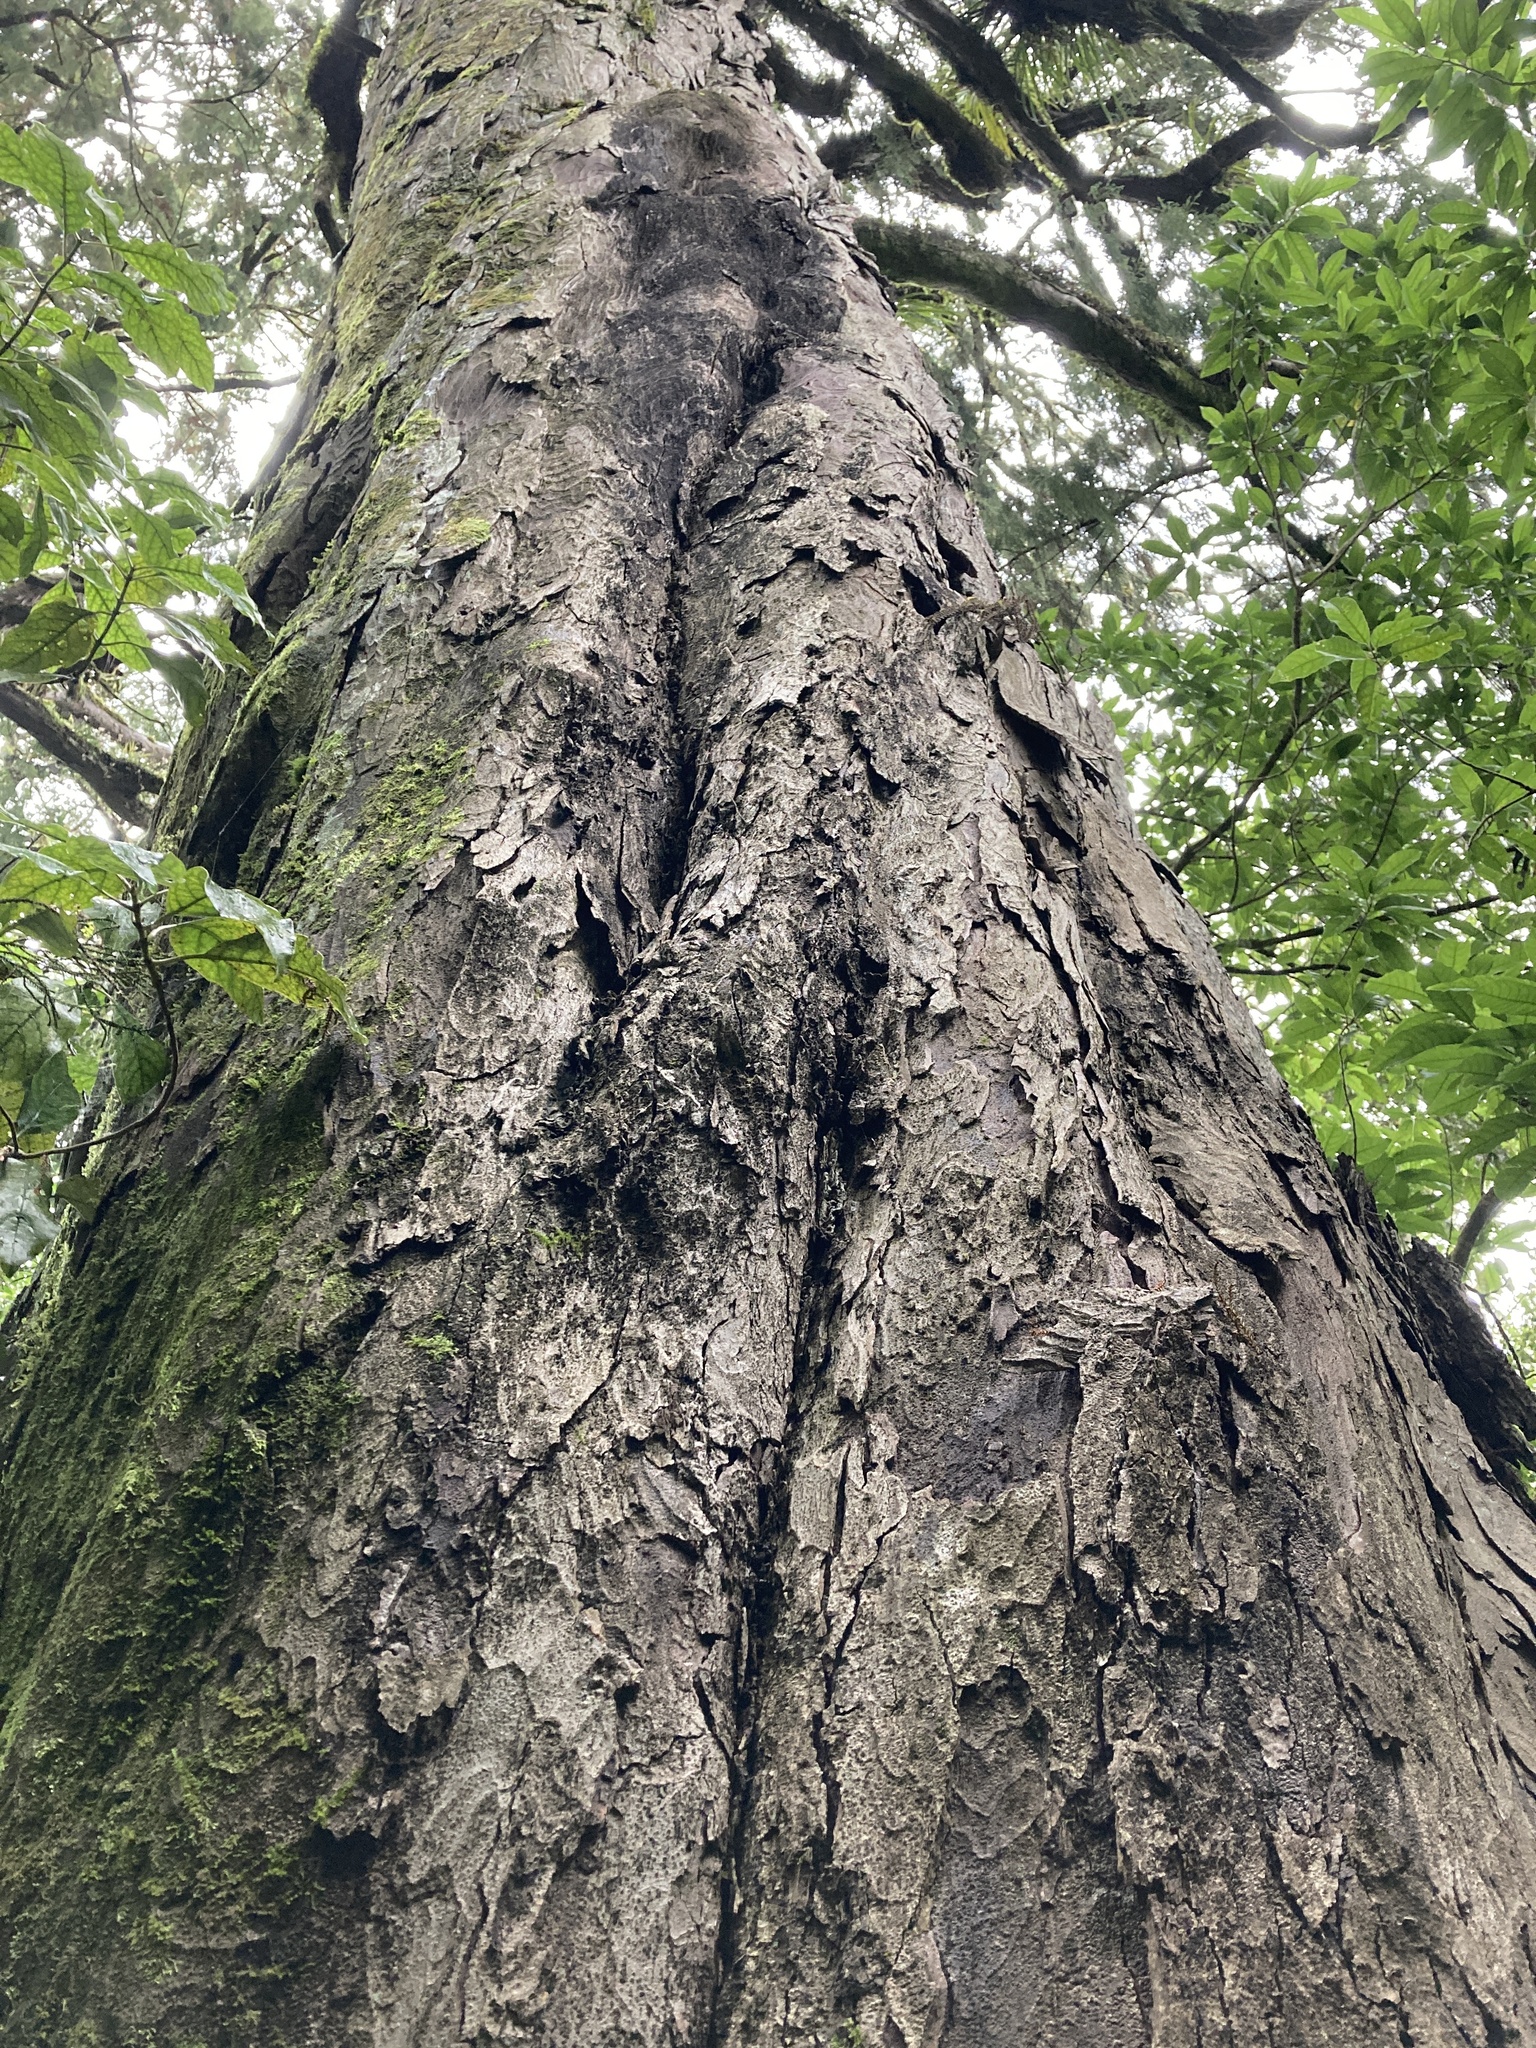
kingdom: Plantae
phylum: Tracheophyta
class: Pinopsida
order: Pinales
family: Podocarpaceae
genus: Dacrydium
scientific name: Dacrydium cupressinum
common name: Red pine
